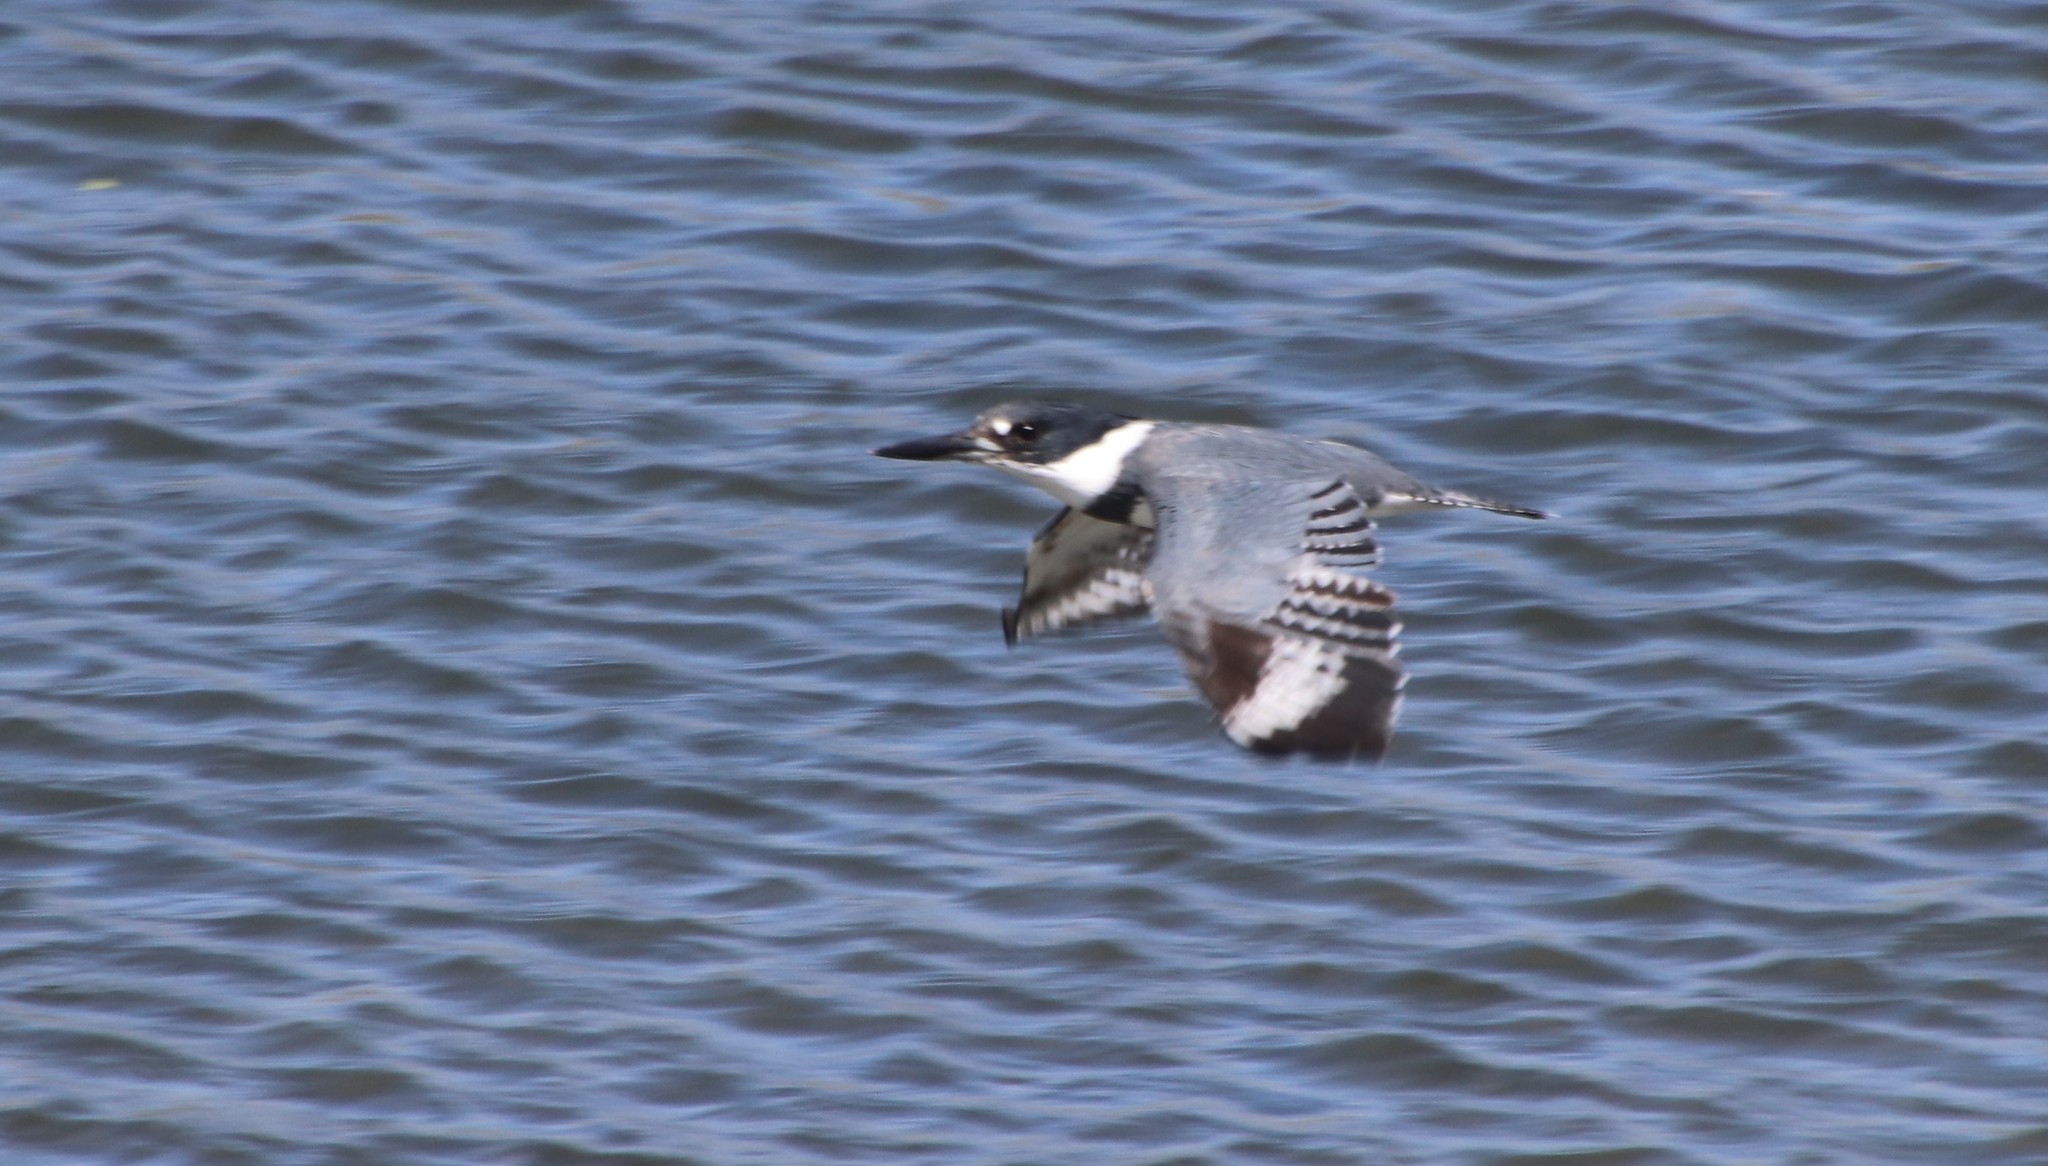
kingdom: Animalia
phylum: Chordata
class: Aves
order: Coraciiformes
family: Alcedinidae
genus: Megaceryle
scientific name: Megaceryle alcyon
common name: Belted kingfisher
